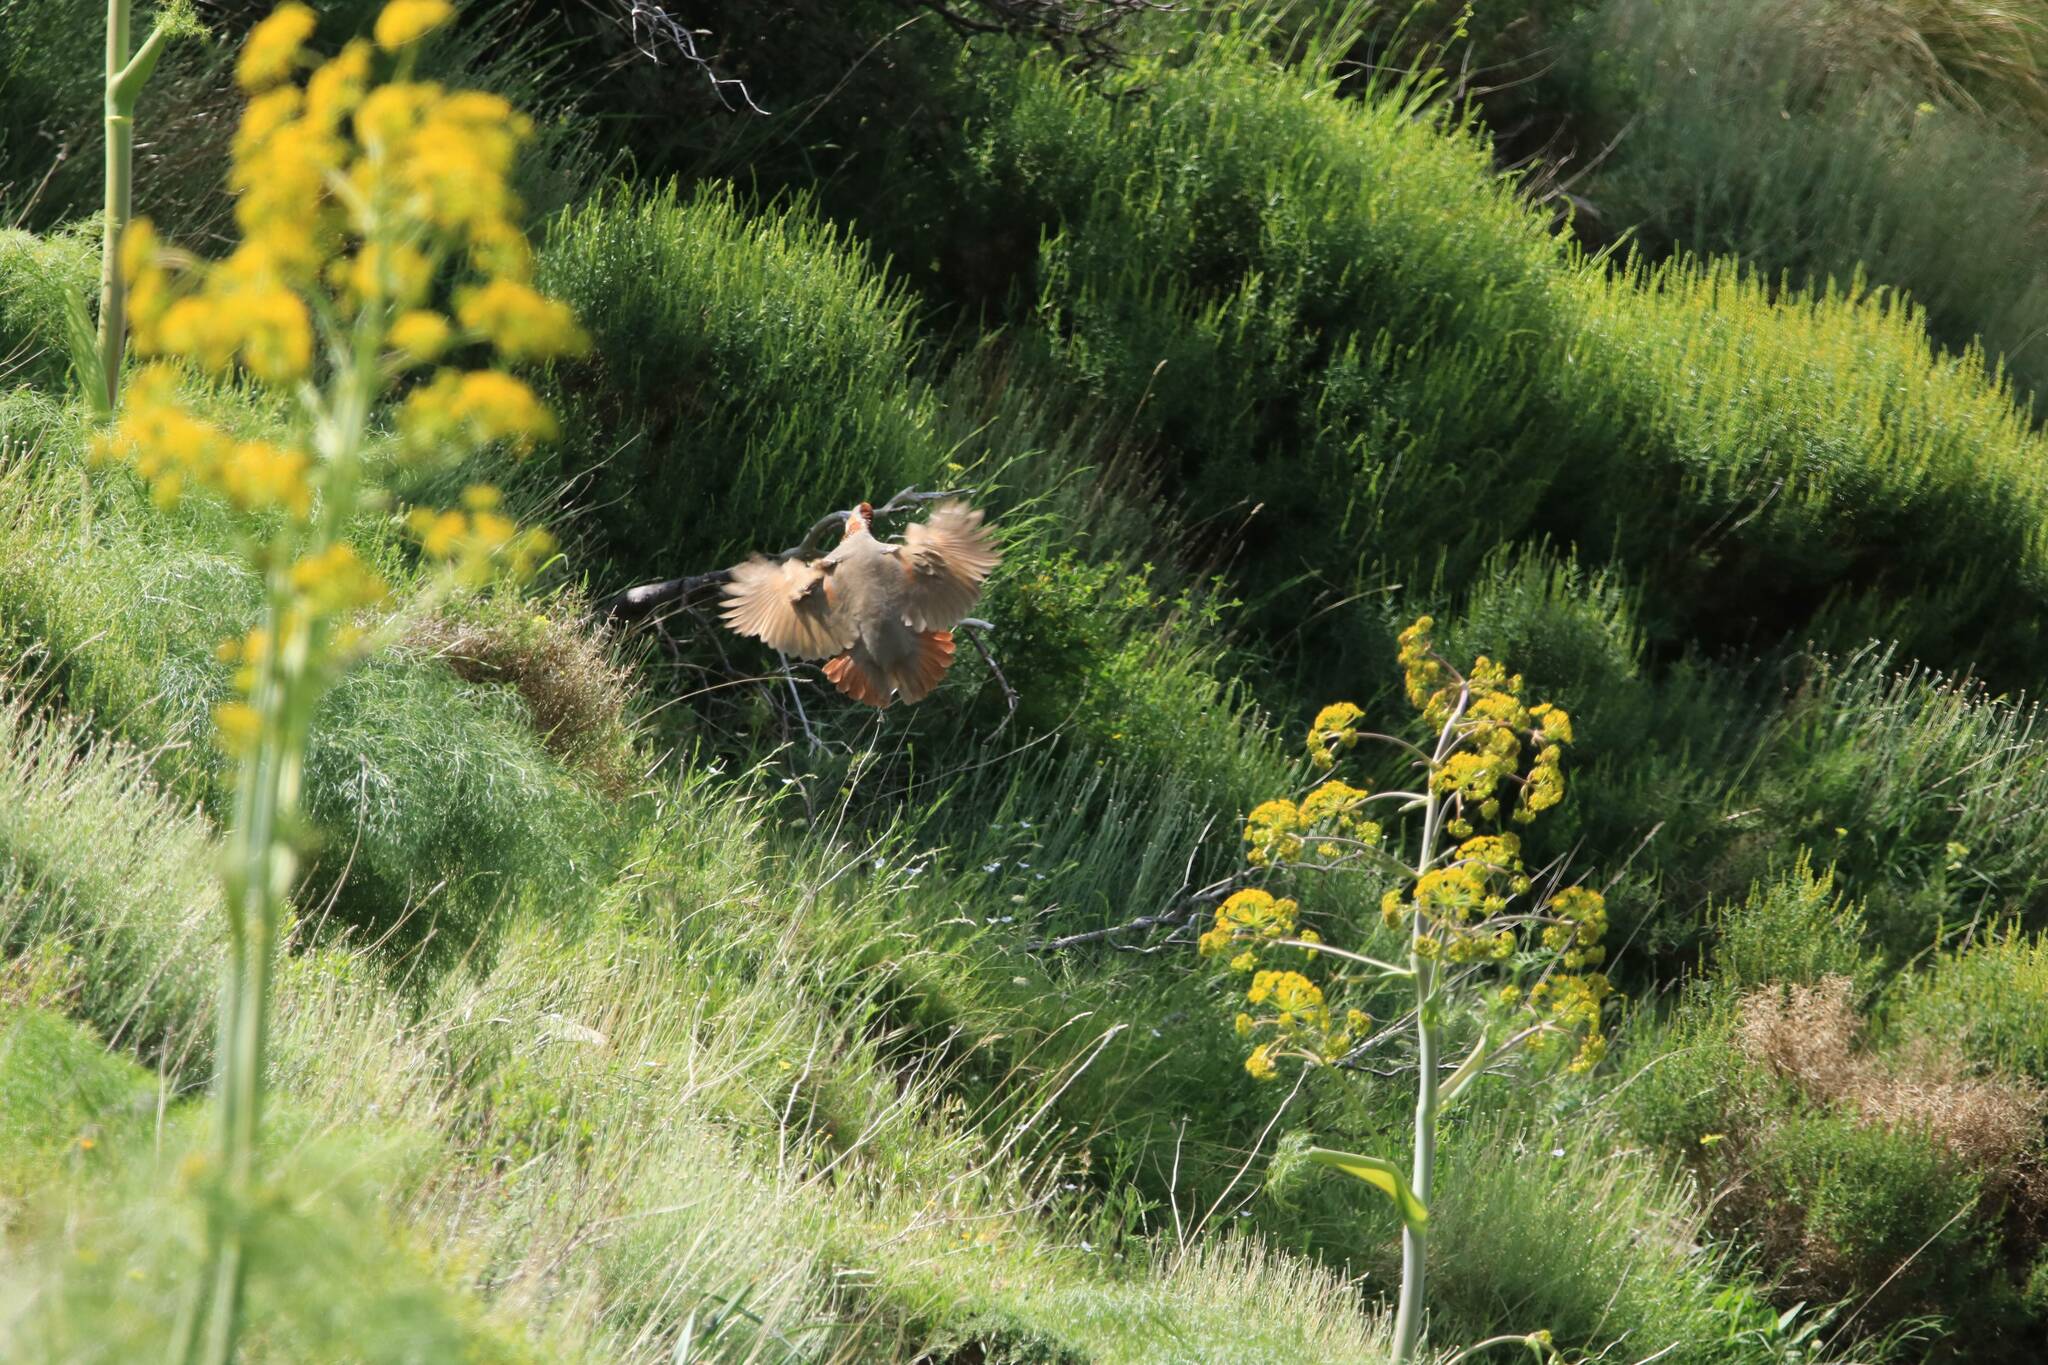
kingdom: Animalia
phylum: Chordata
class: Aves
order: Galliformes
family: Phasianidae
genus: Alectoris
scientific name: Alectoris barbara
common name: Barbary partridge
